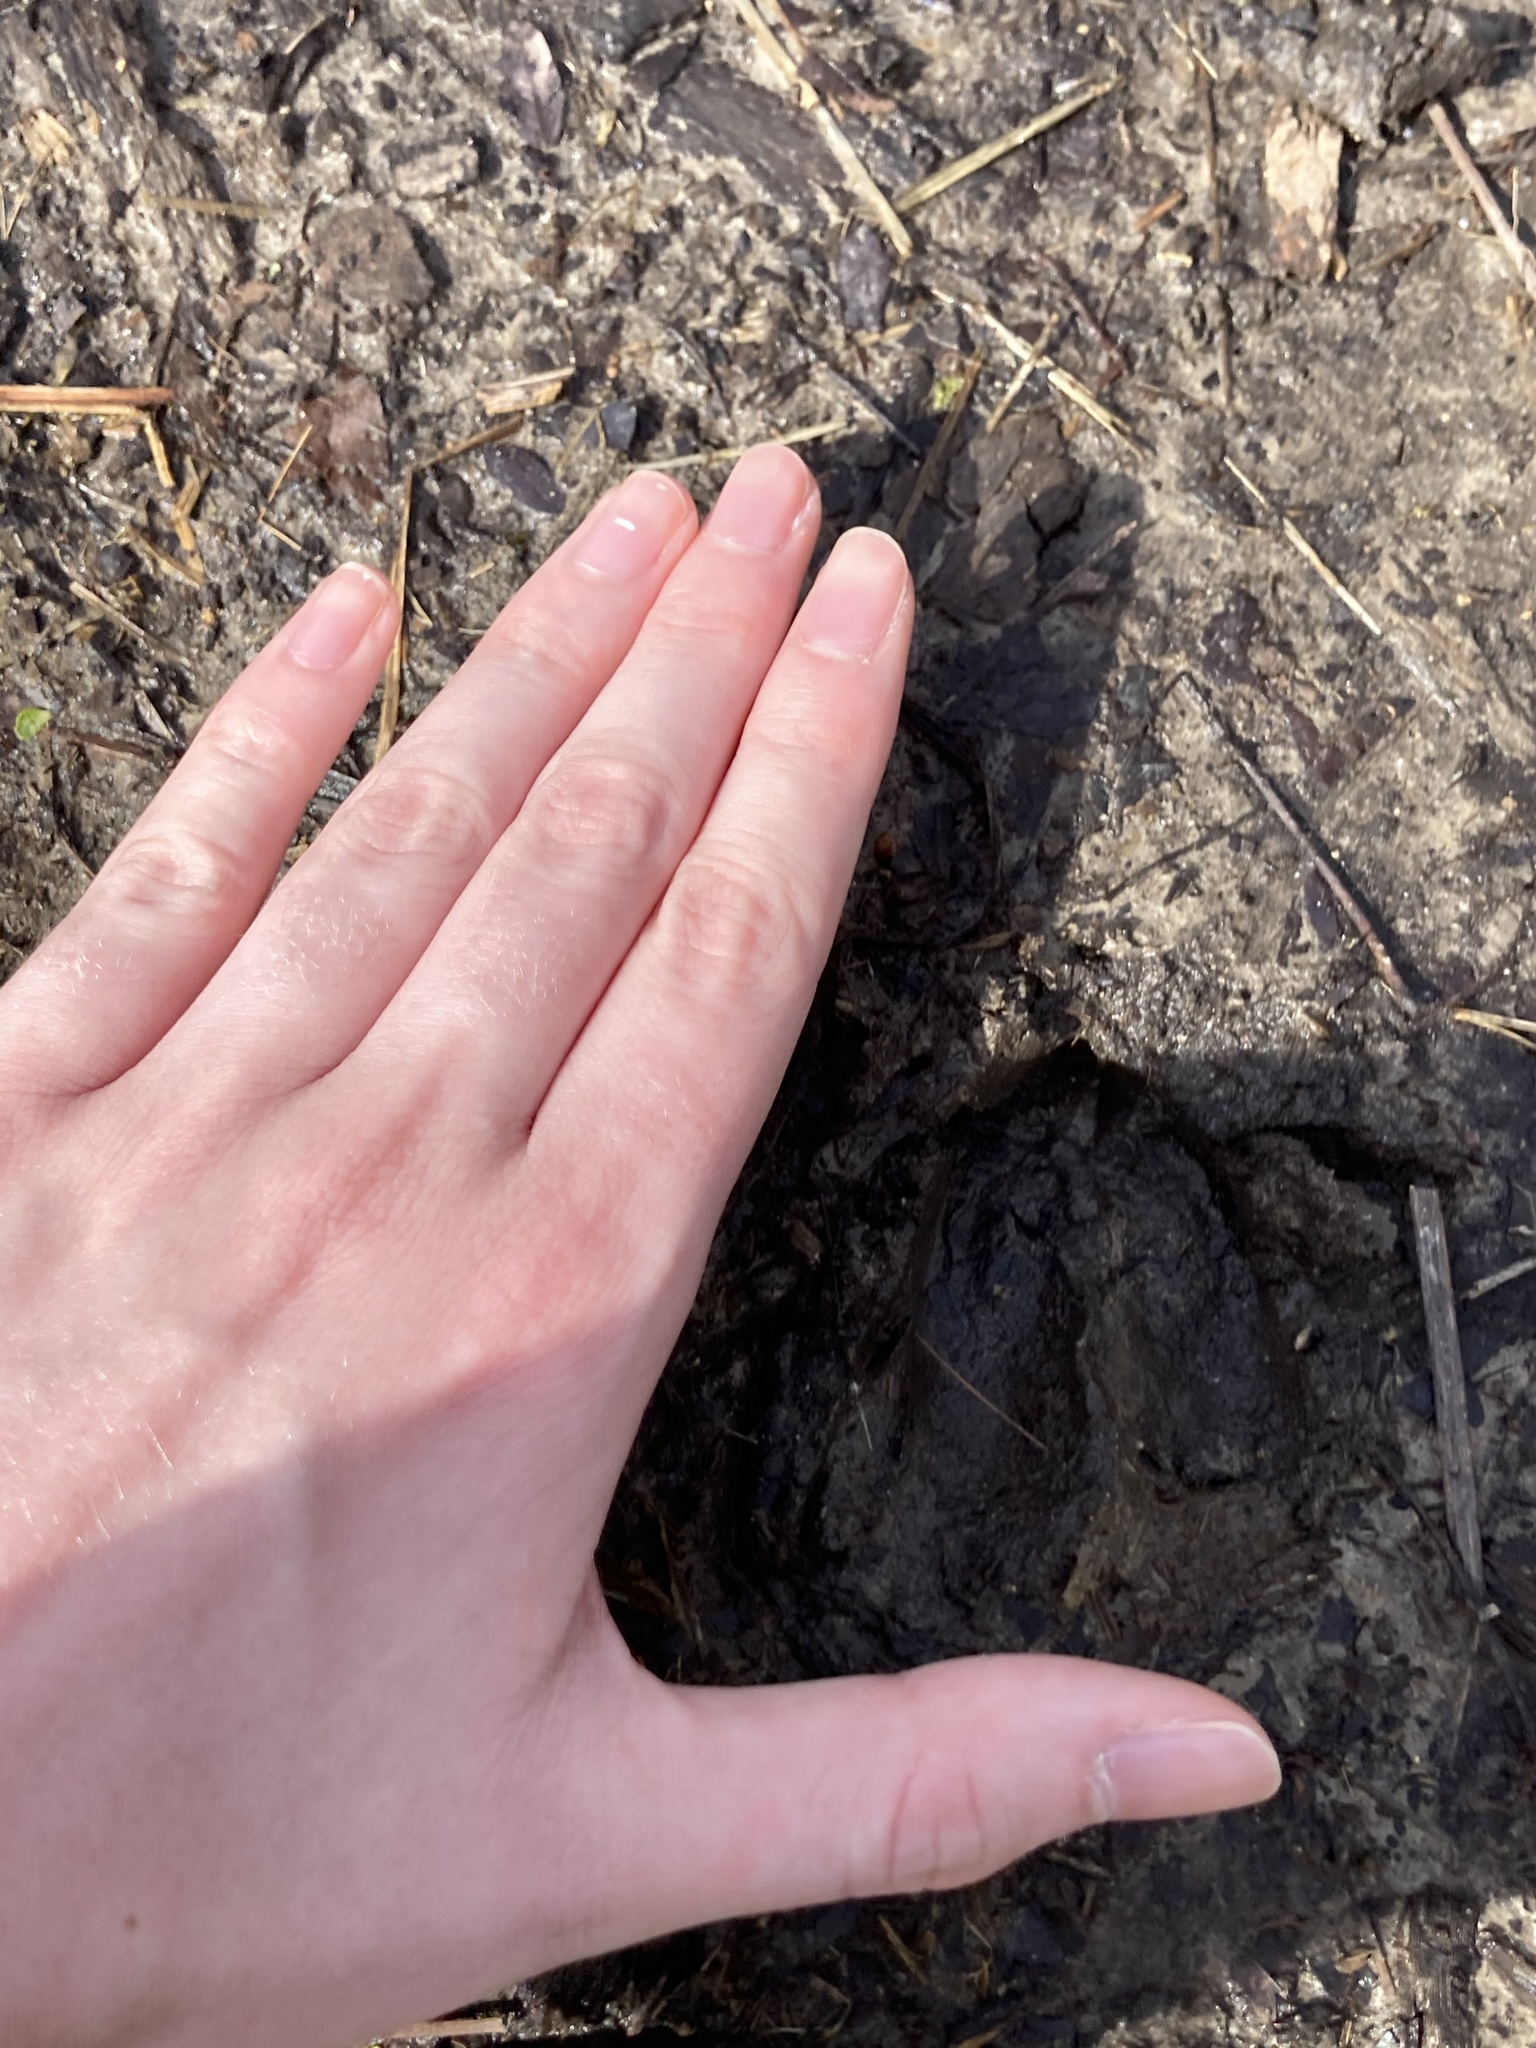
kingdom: Animalia
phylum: Chordata
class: Mammalia
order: Artiodactyla
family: Cervidae
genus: Odocoileus
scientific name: Odocoileus virginianus
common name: White-tailed deer
